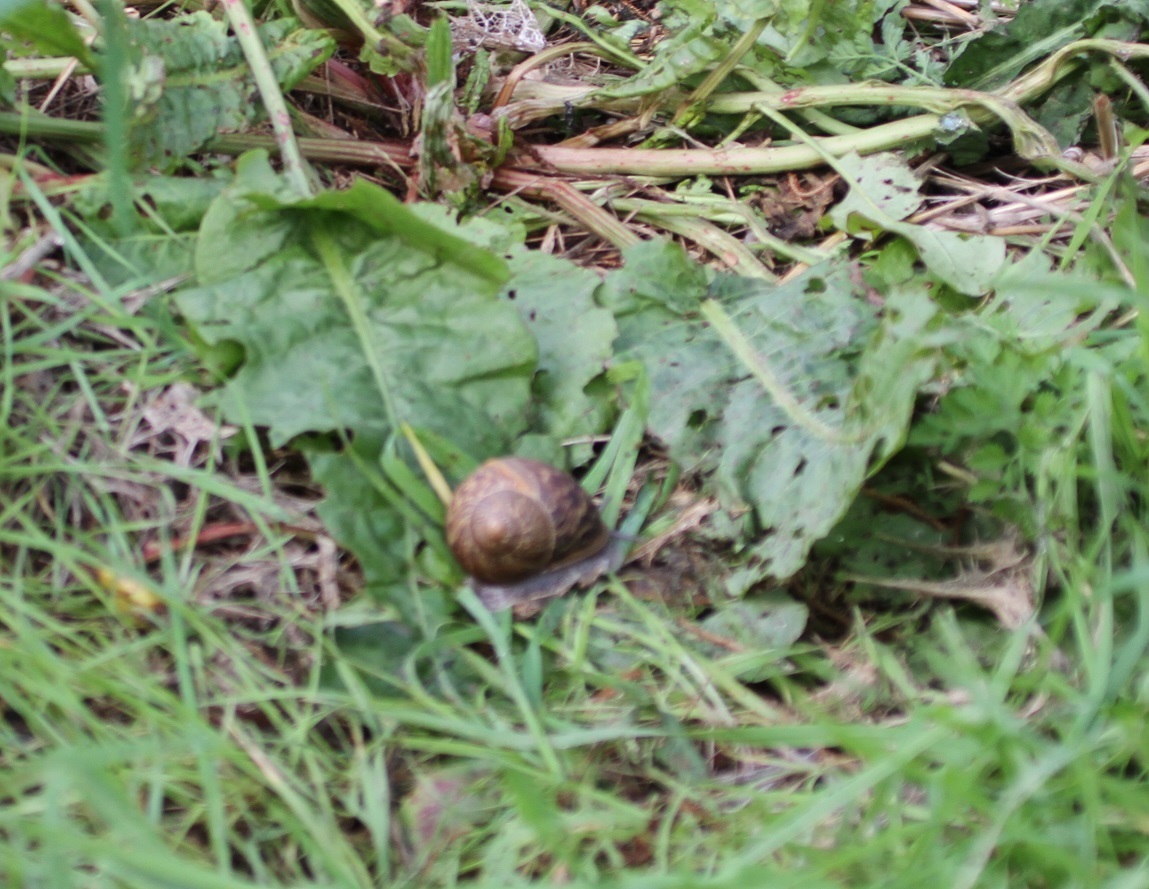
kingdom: Animalia
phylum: Mollusca
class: Gastropoda
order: Stylommatophora
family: Helicidae
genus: Cornu
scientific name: Cornu aspersum
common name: Brown garden snail
